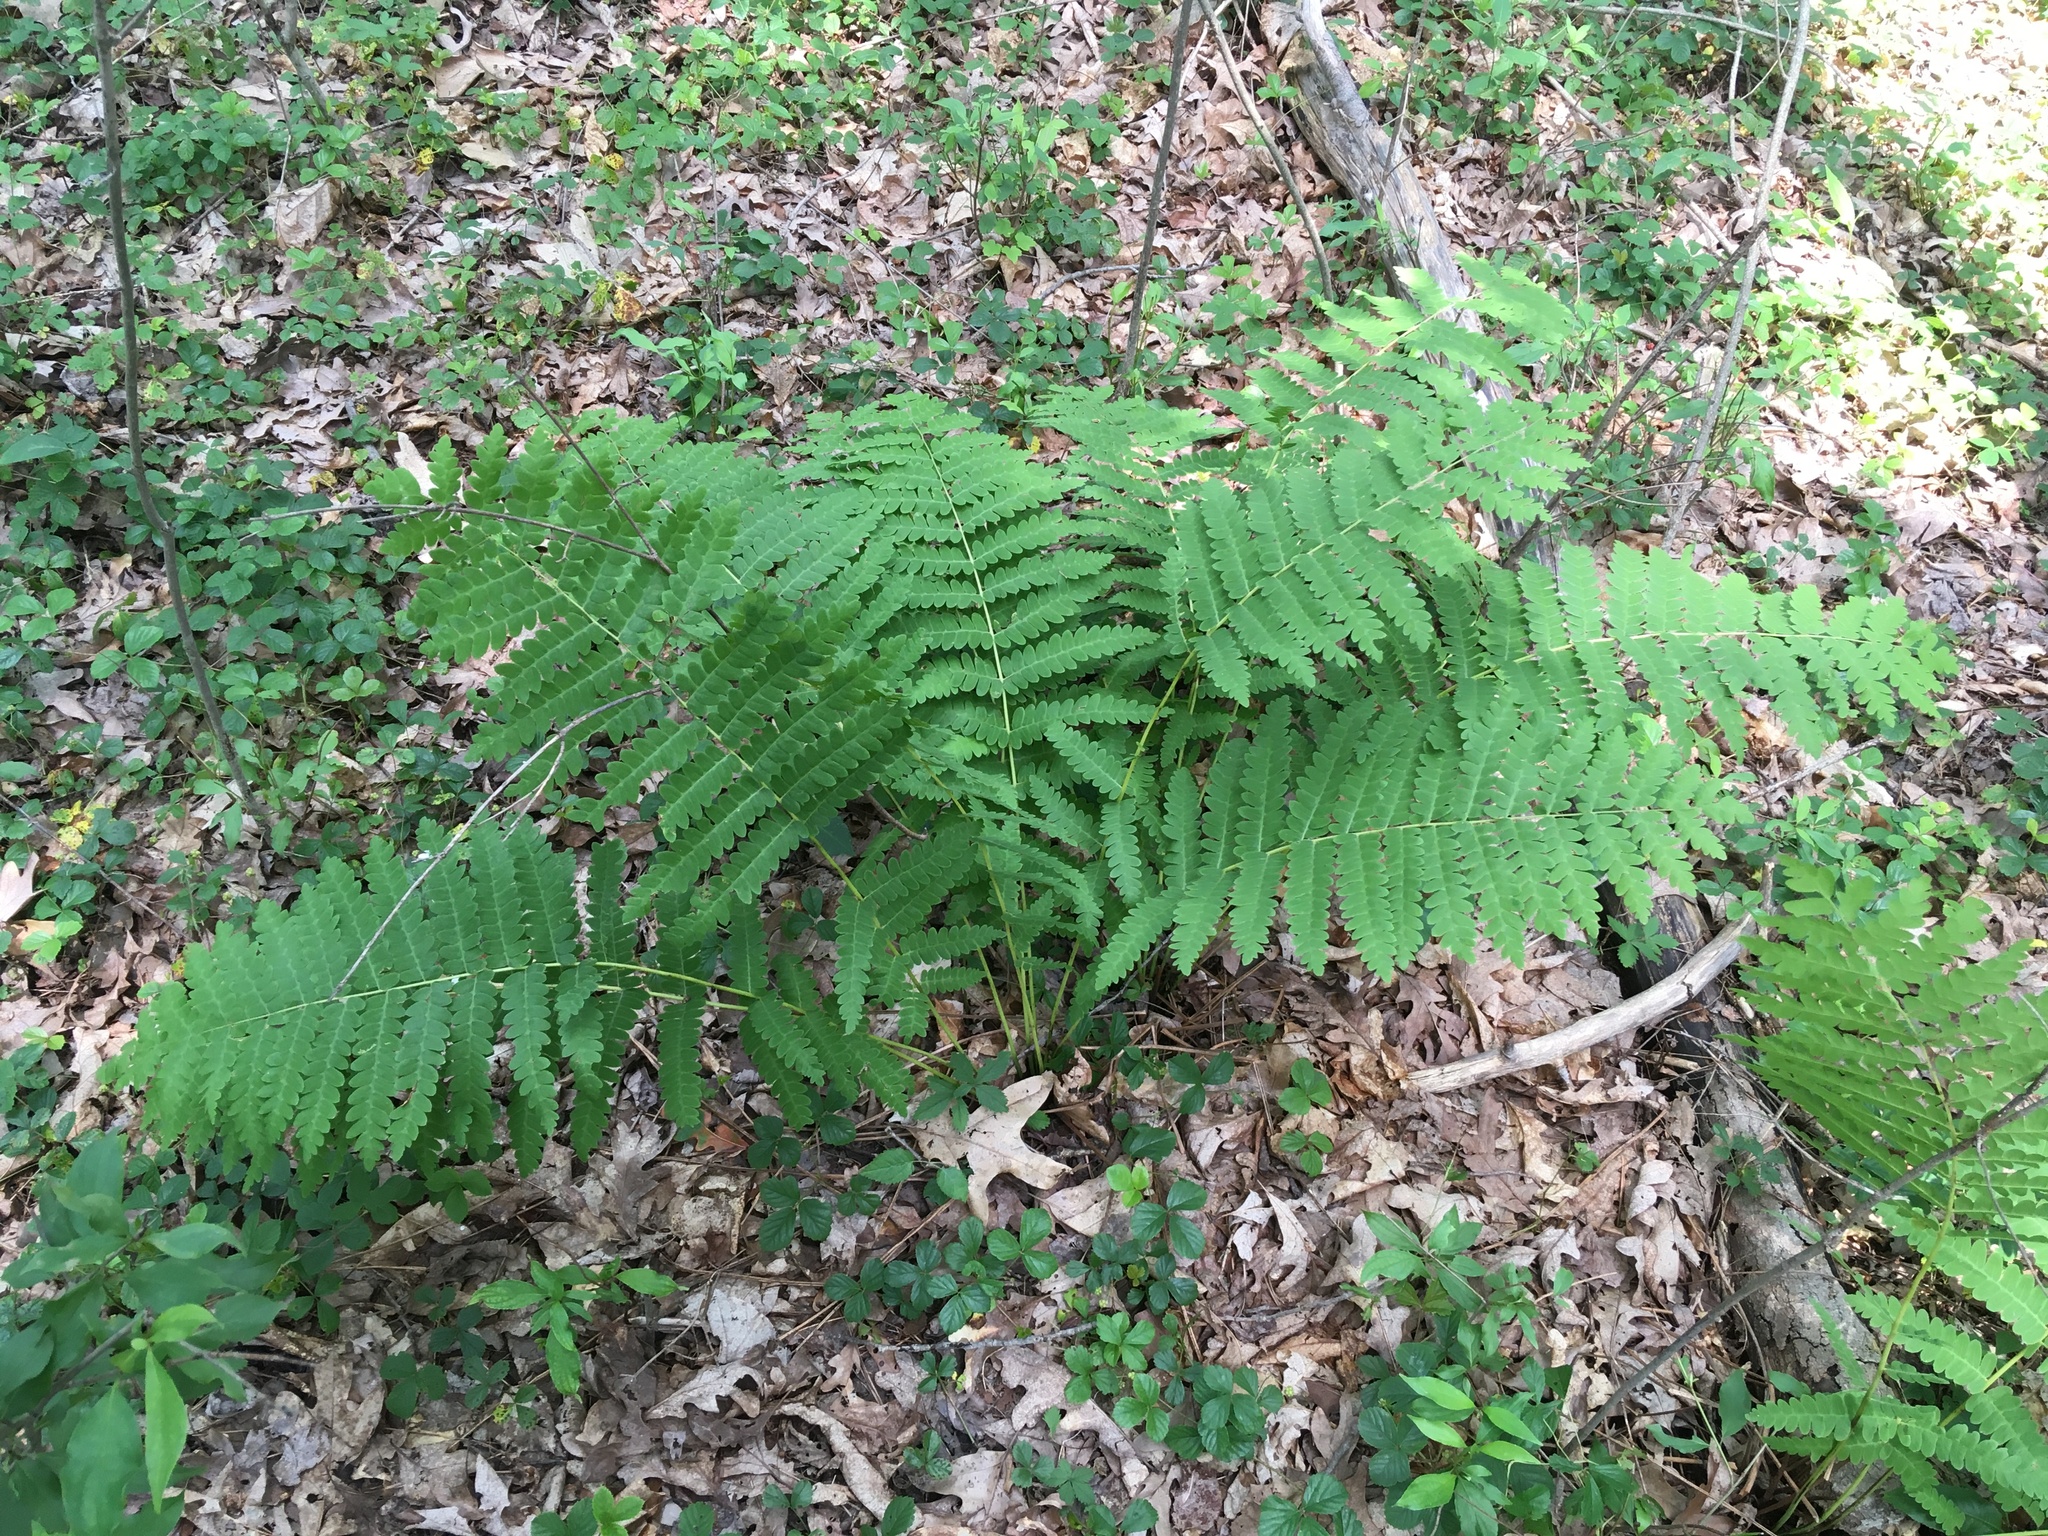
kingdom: Plantae
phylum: Tracheophyta
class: Polypodiopsida
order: Osmundales
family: Osmundaceae
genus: Claytosmunda
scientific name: Claytosmunda claytoniana
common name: Clayton's fern
